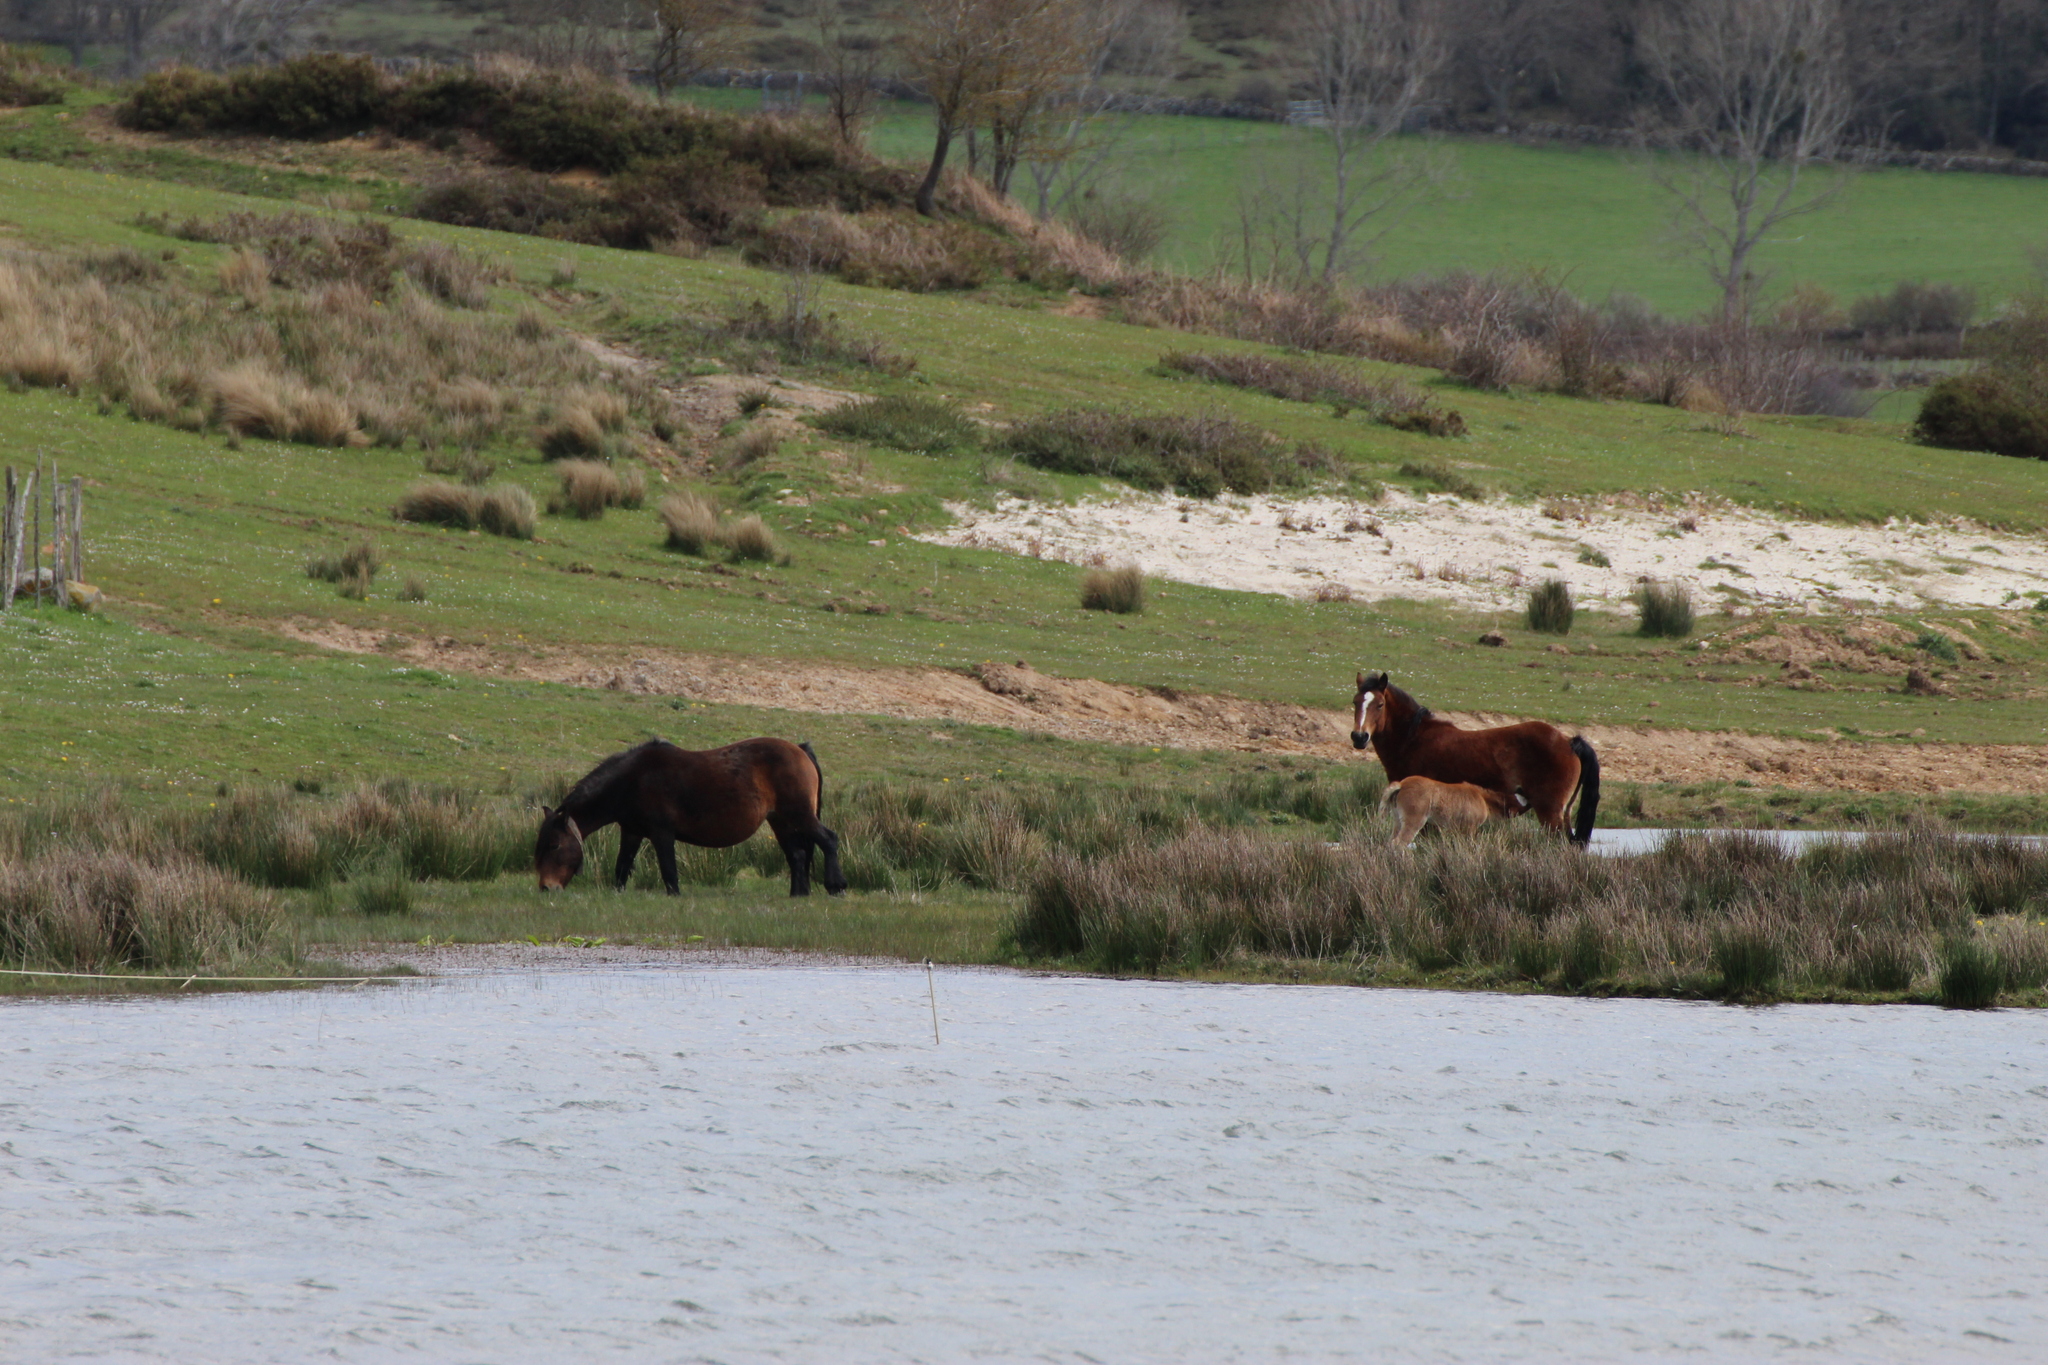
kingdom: Animalia
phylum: Chordata
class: Mammalia
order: Perissodactyla
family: Equidae
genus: Equus
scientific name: Equus caballus
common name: Horse
